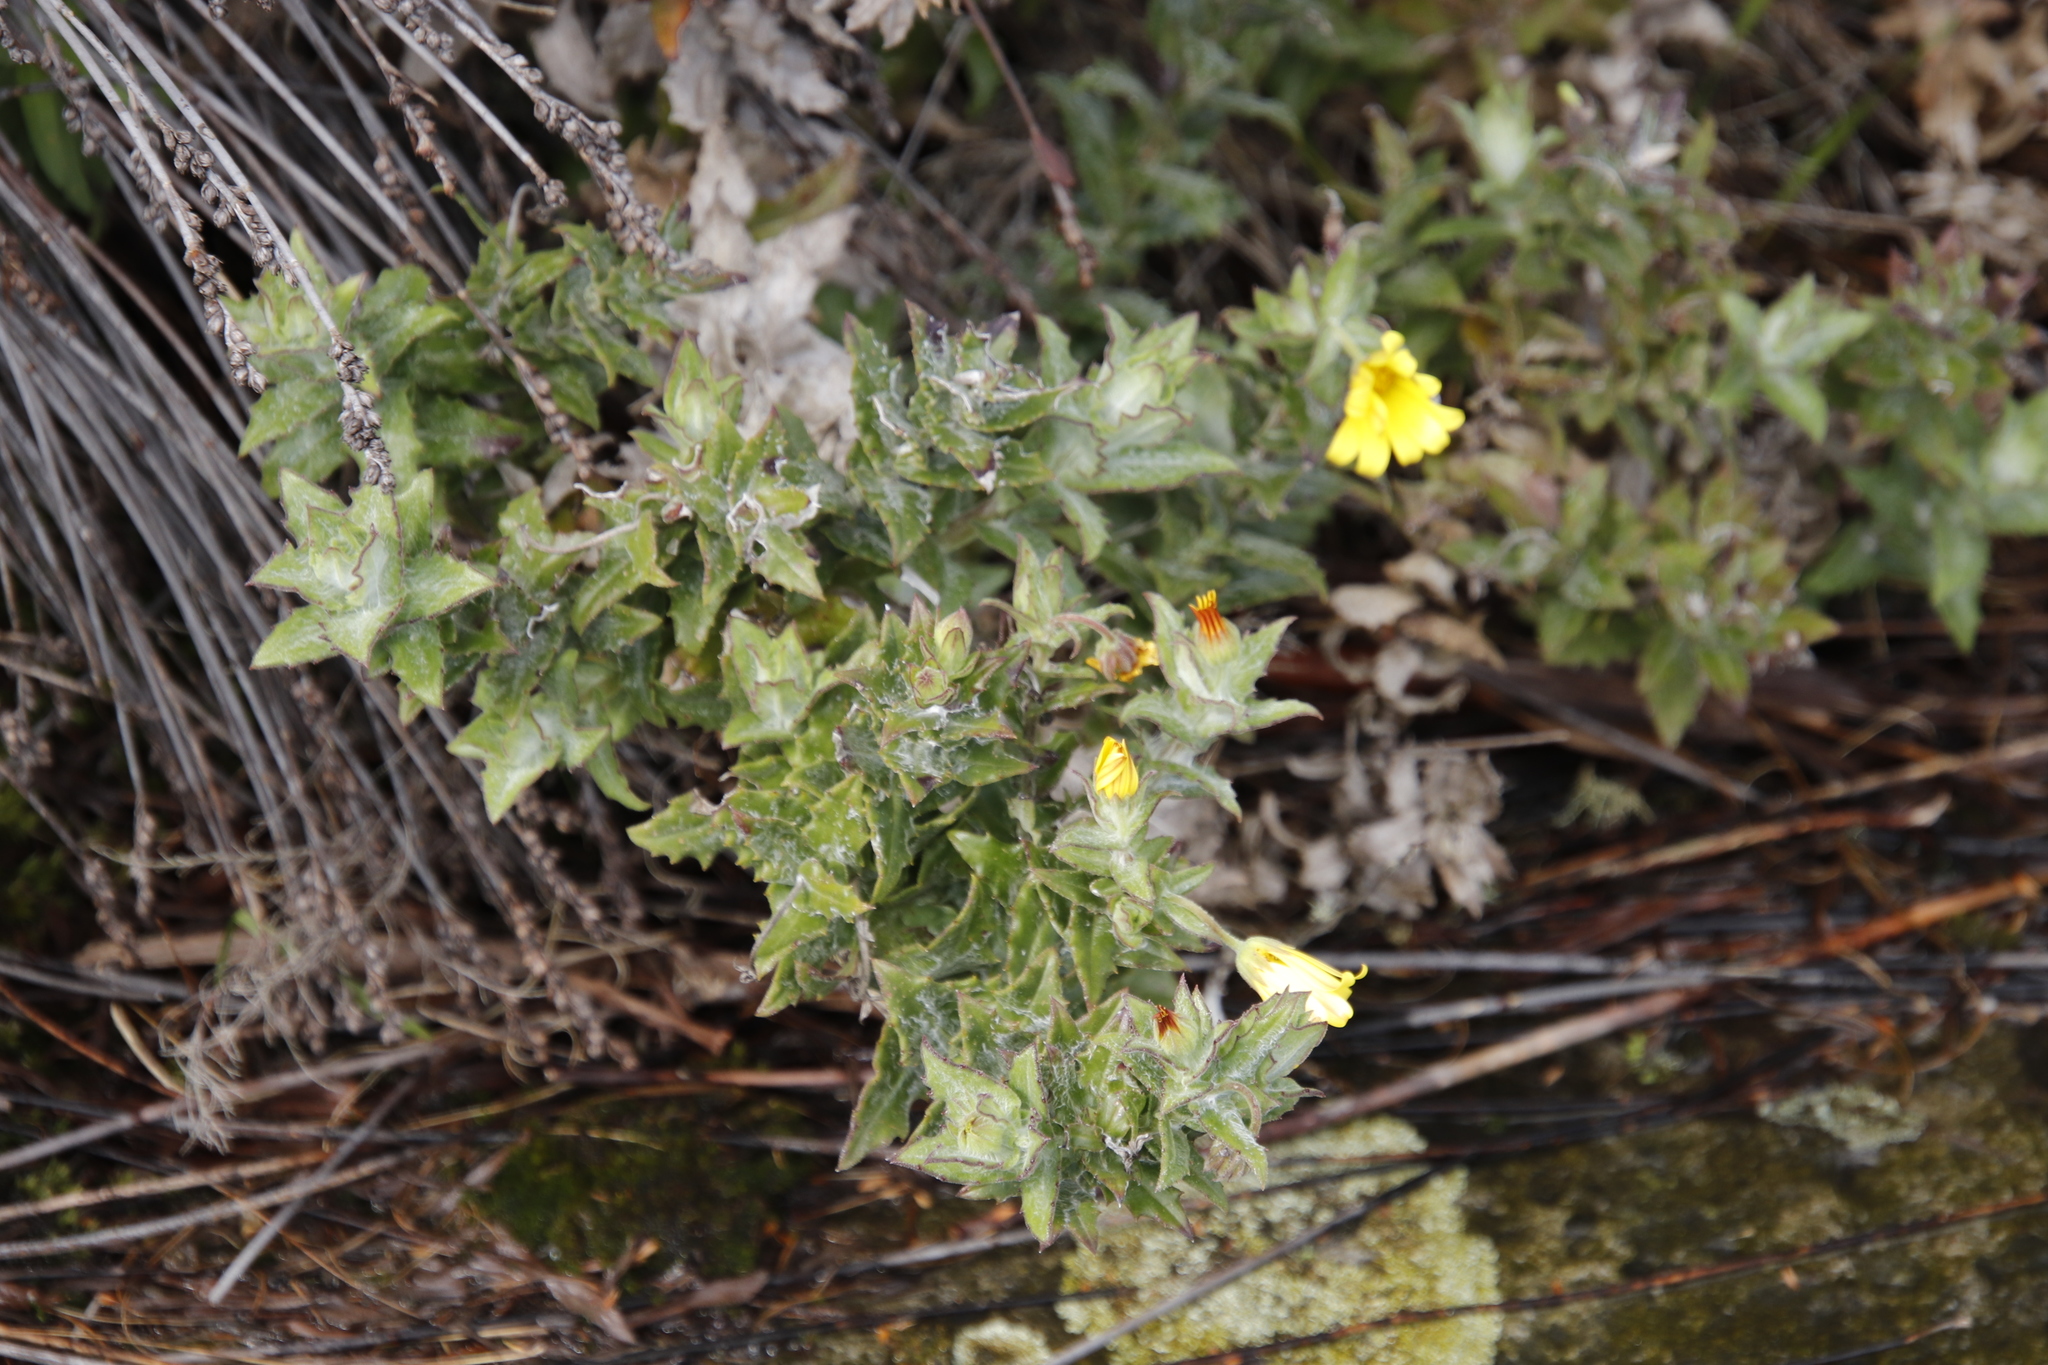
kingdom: Plantae
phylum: Tracheophyta
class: Magnoliopsida
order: Asterales
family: Asteraceae
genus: Osteospermum
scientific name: Osteospermum ilicifolium
